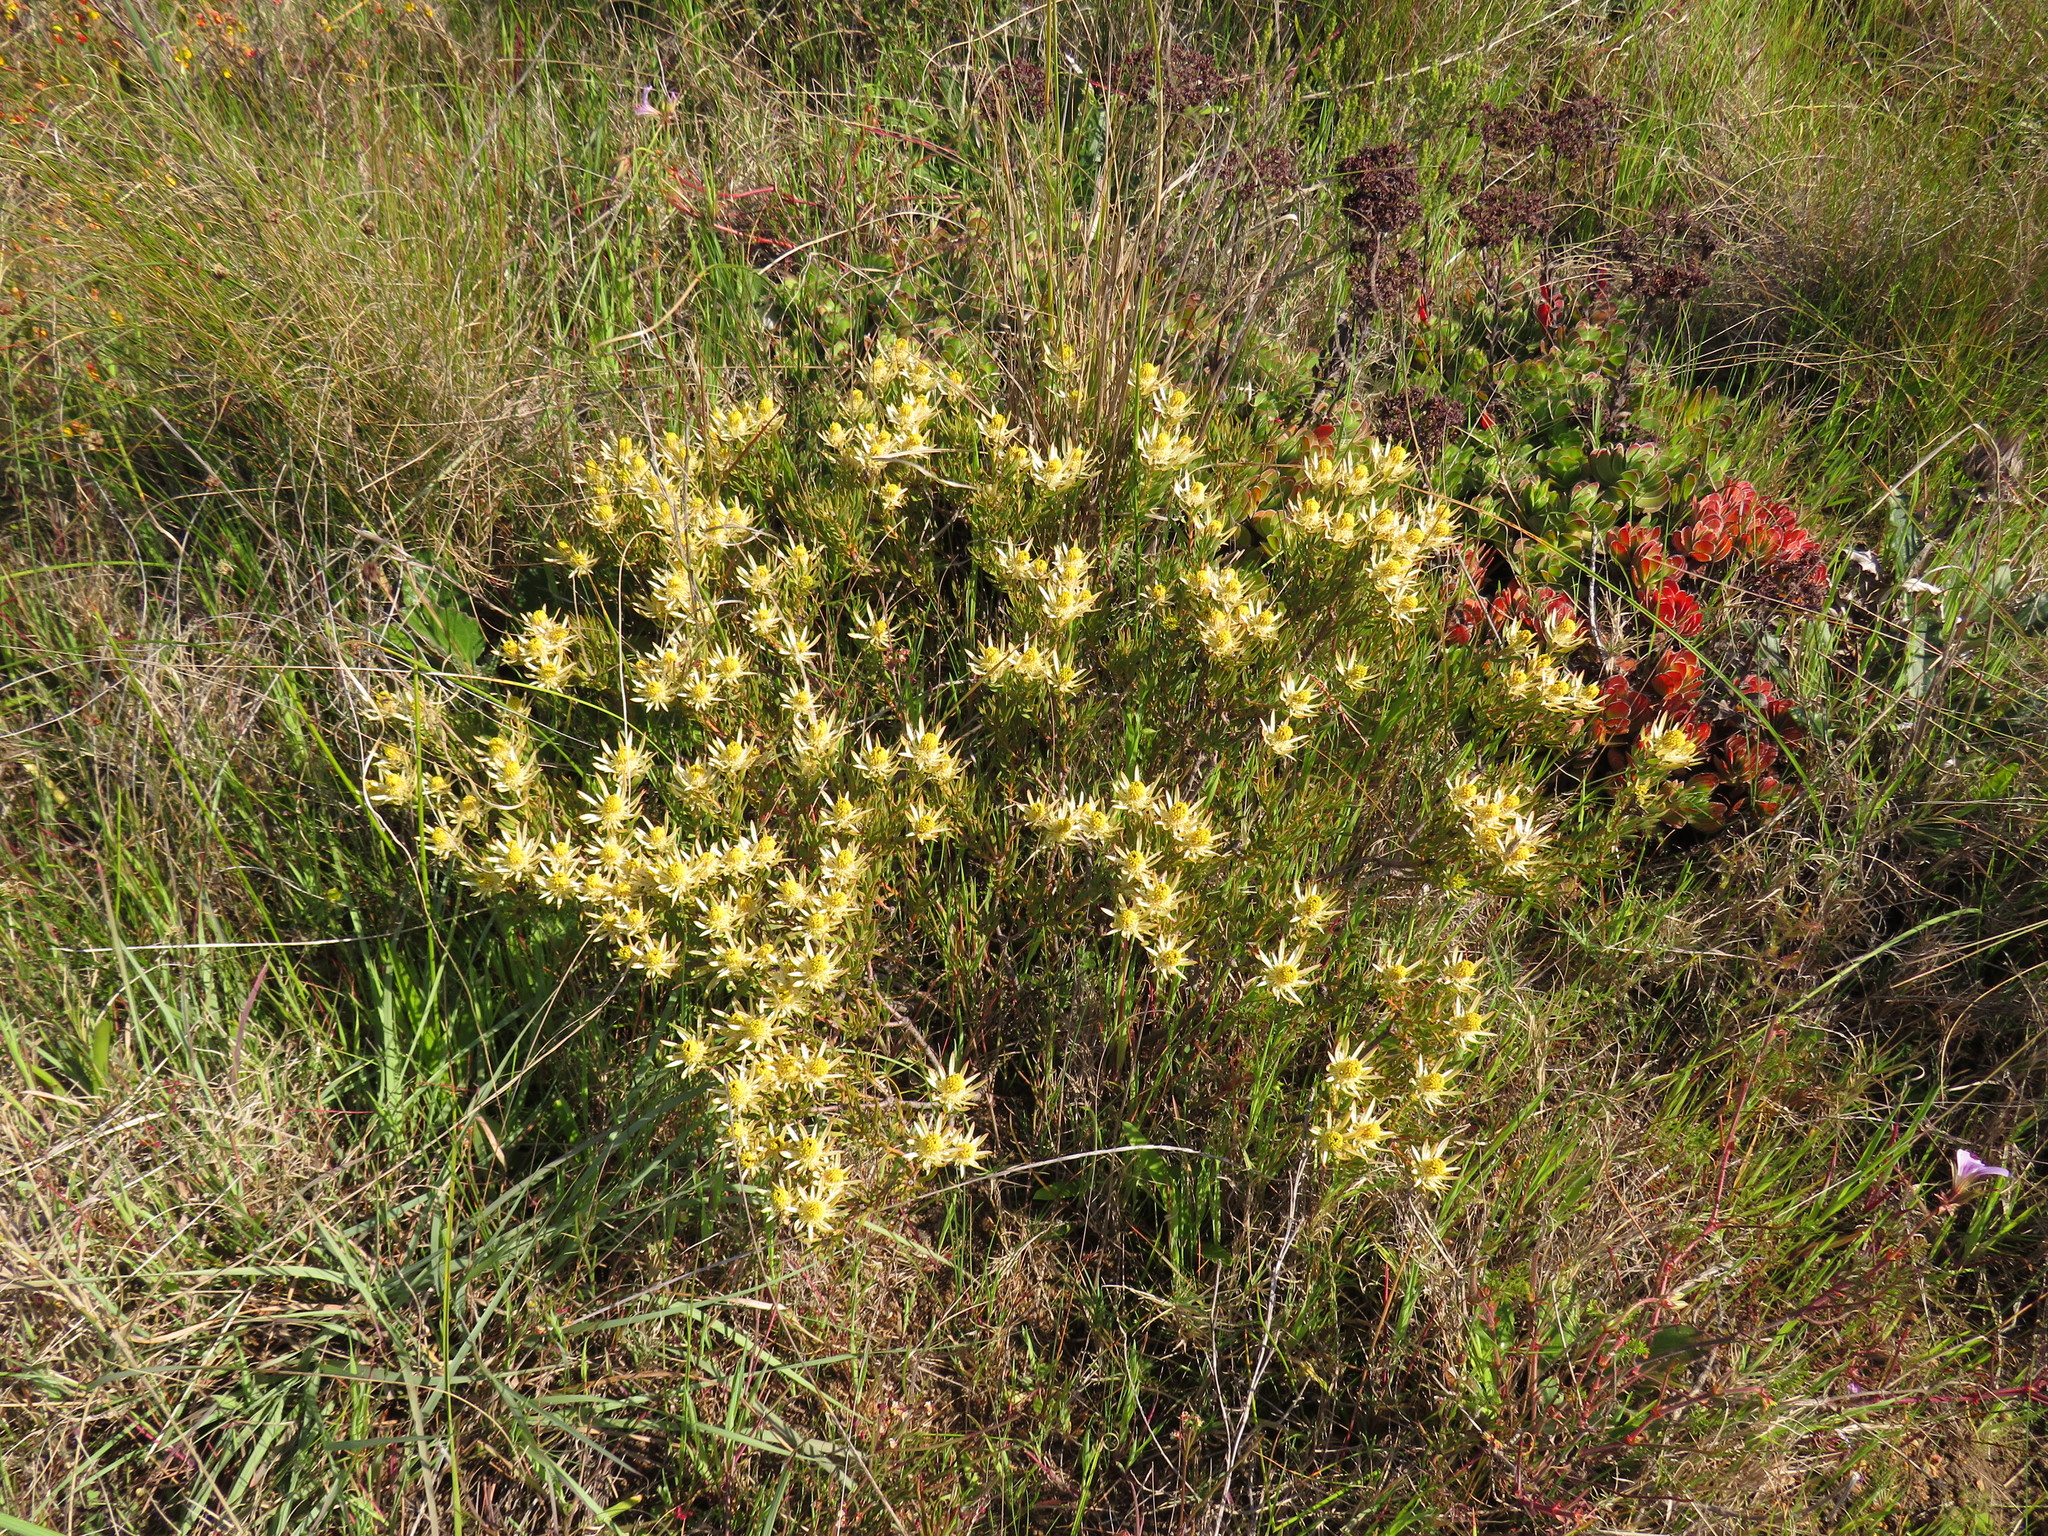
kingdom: Plantae
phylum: Tracheophyta
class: Magnoliopsida
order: Proteales
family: Proteaceae
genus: Leucadendron
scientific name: Leucadendron lanigerum
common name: Shale conebush
